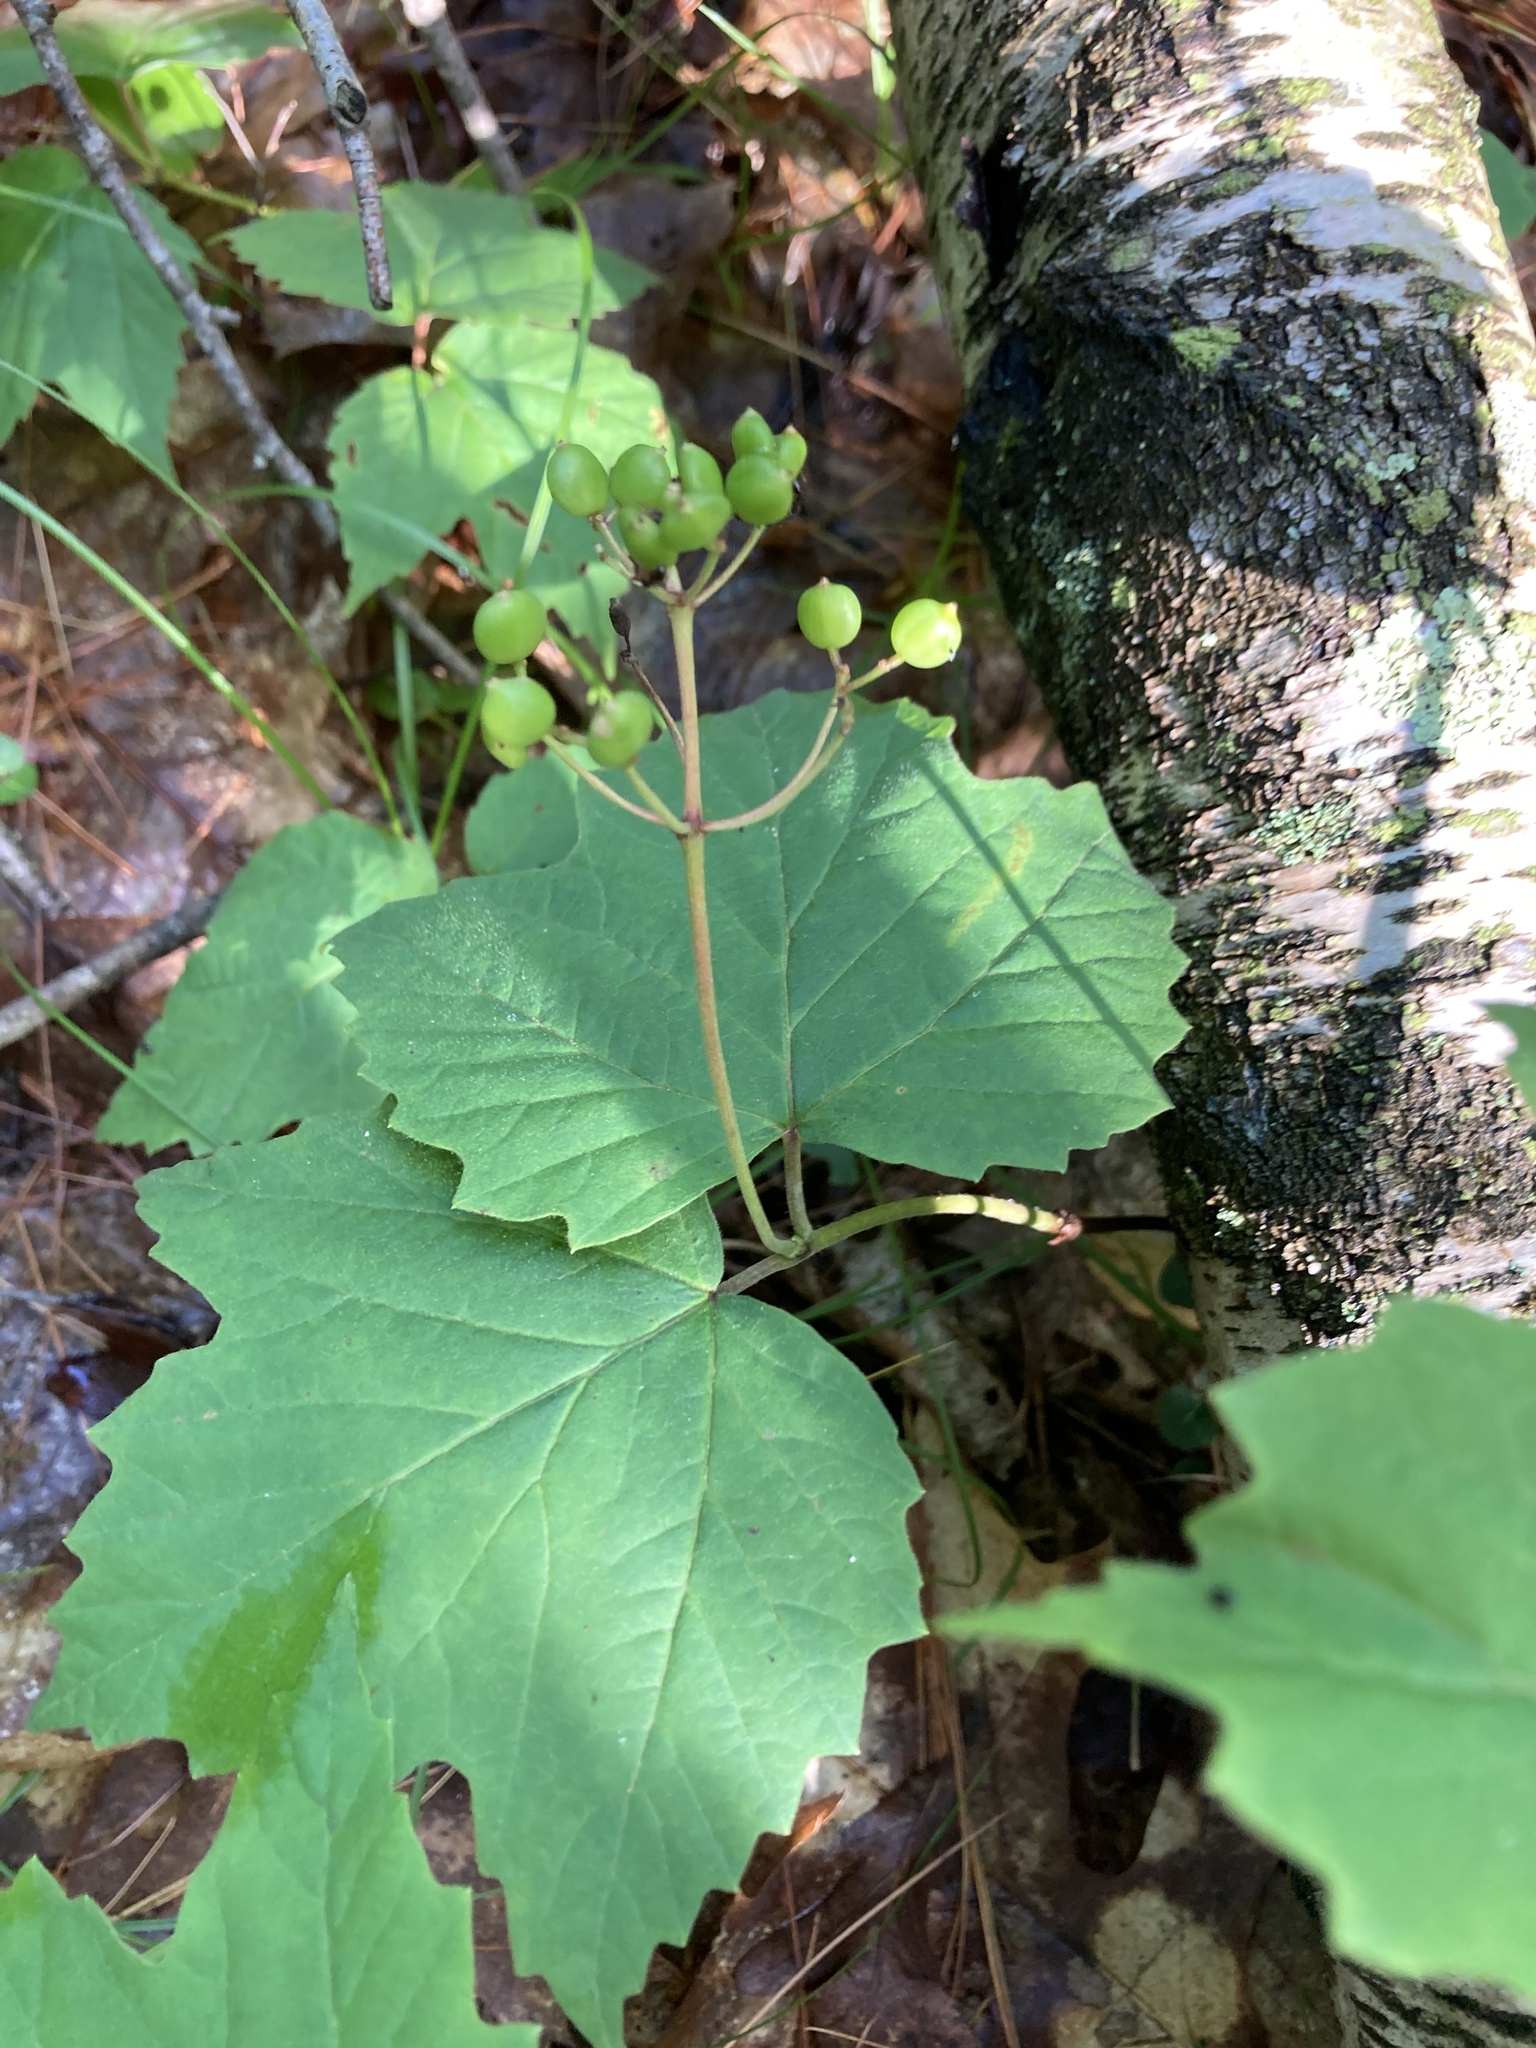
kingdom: Plantae
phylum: Tracheophyta
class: Magnoliopsida
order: Dipsacales
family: Viburnaceae
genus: Viburnum
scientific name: Viburnum acerifolium
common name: Dockmackie
